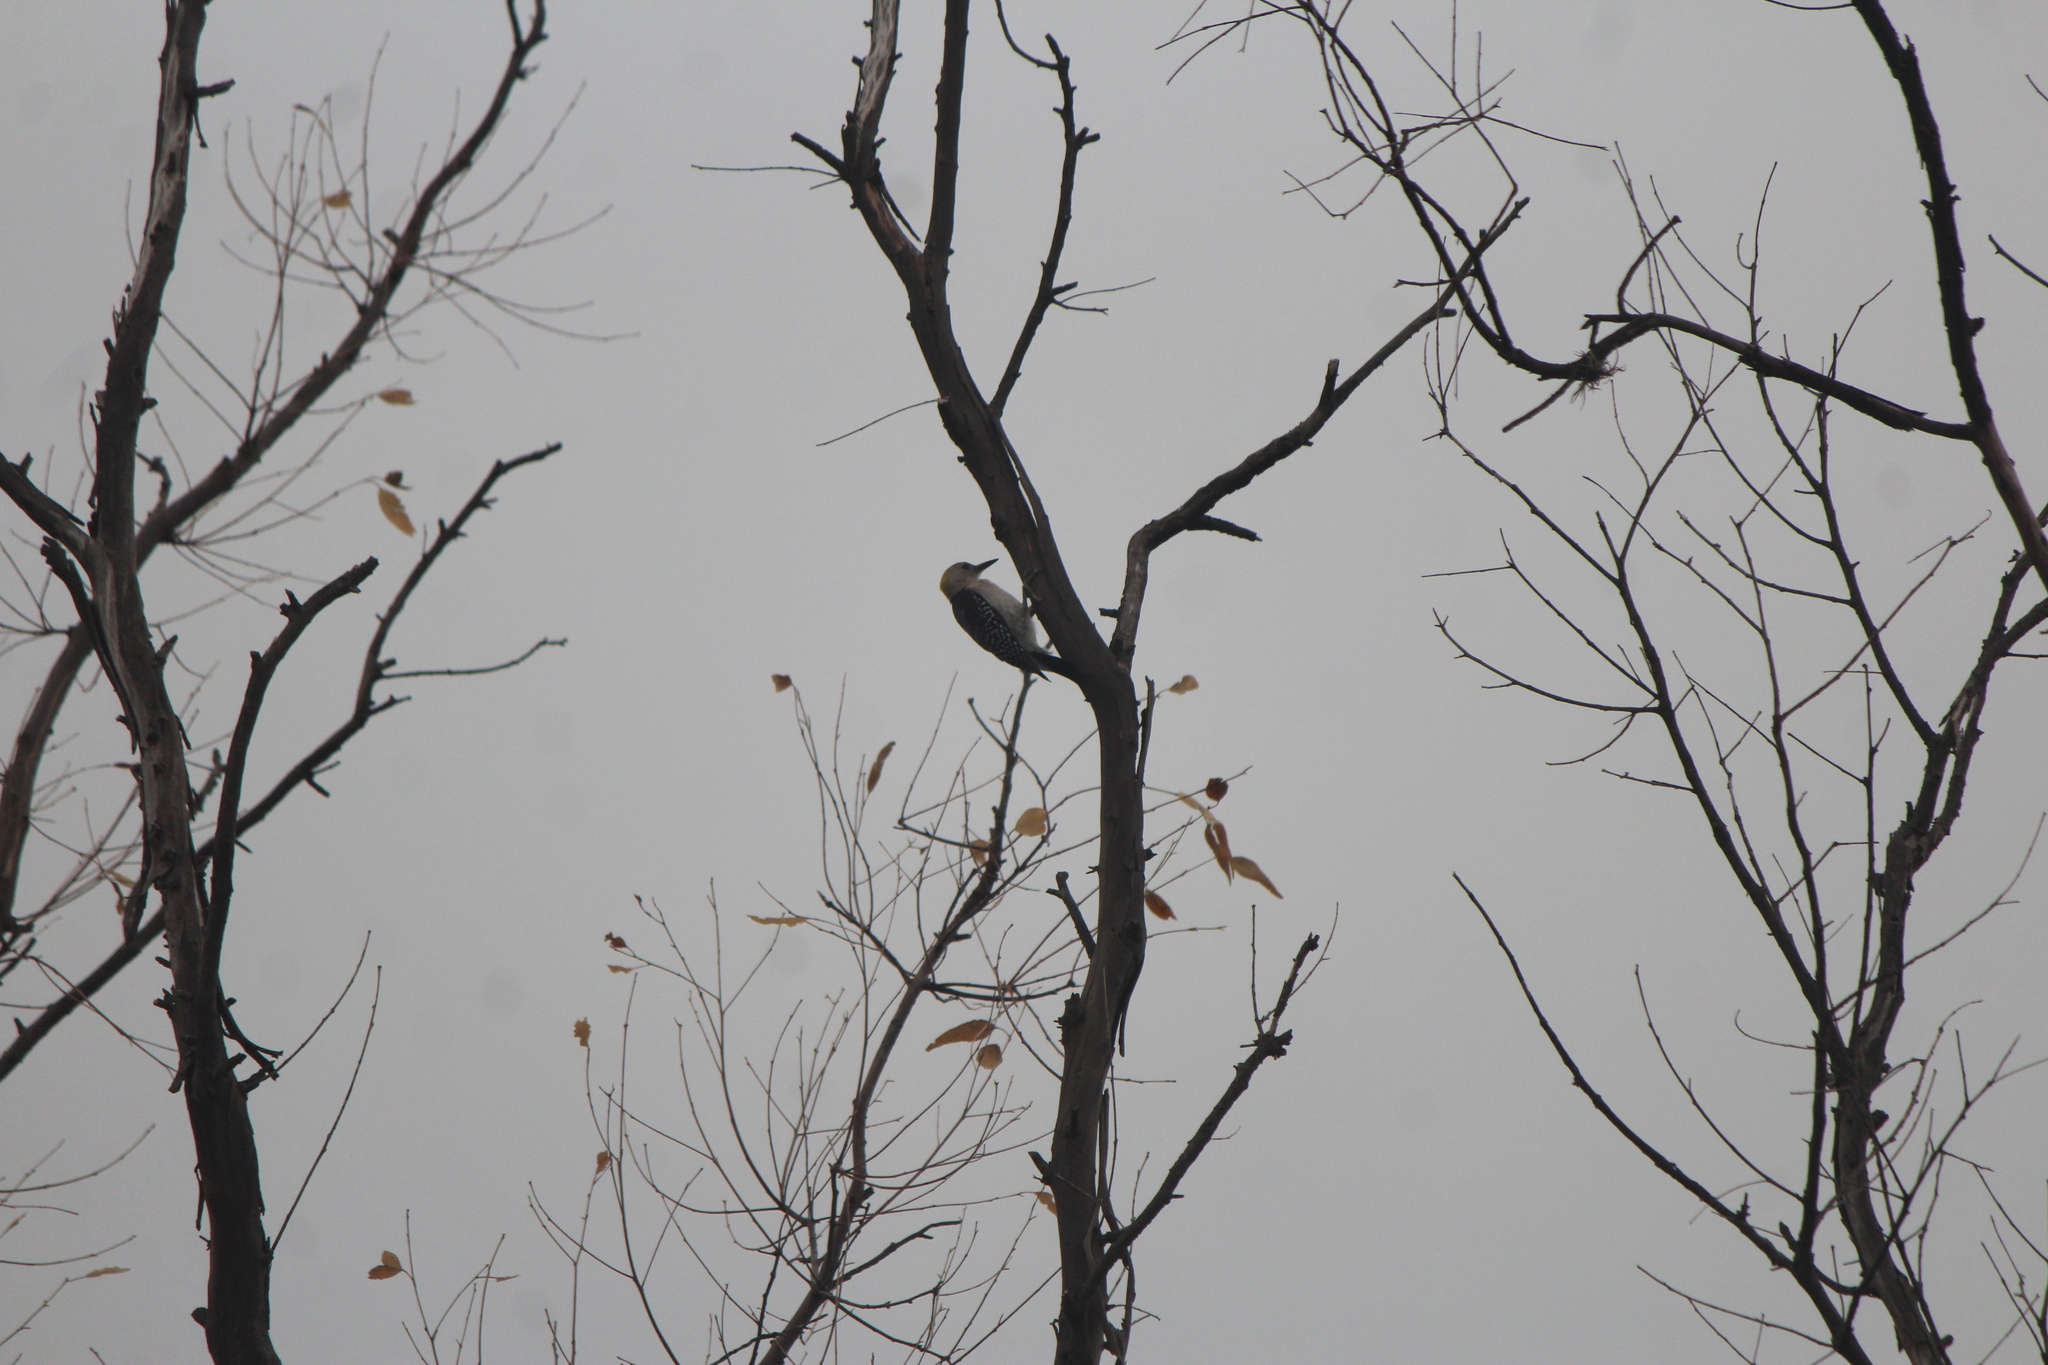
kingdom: Animalia
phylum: Chordata
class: Aves
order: Piciformes
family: Picidae
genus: Melanerpes
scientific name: Melanerpes aurifrons
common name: Golden-fronted woodpecker
